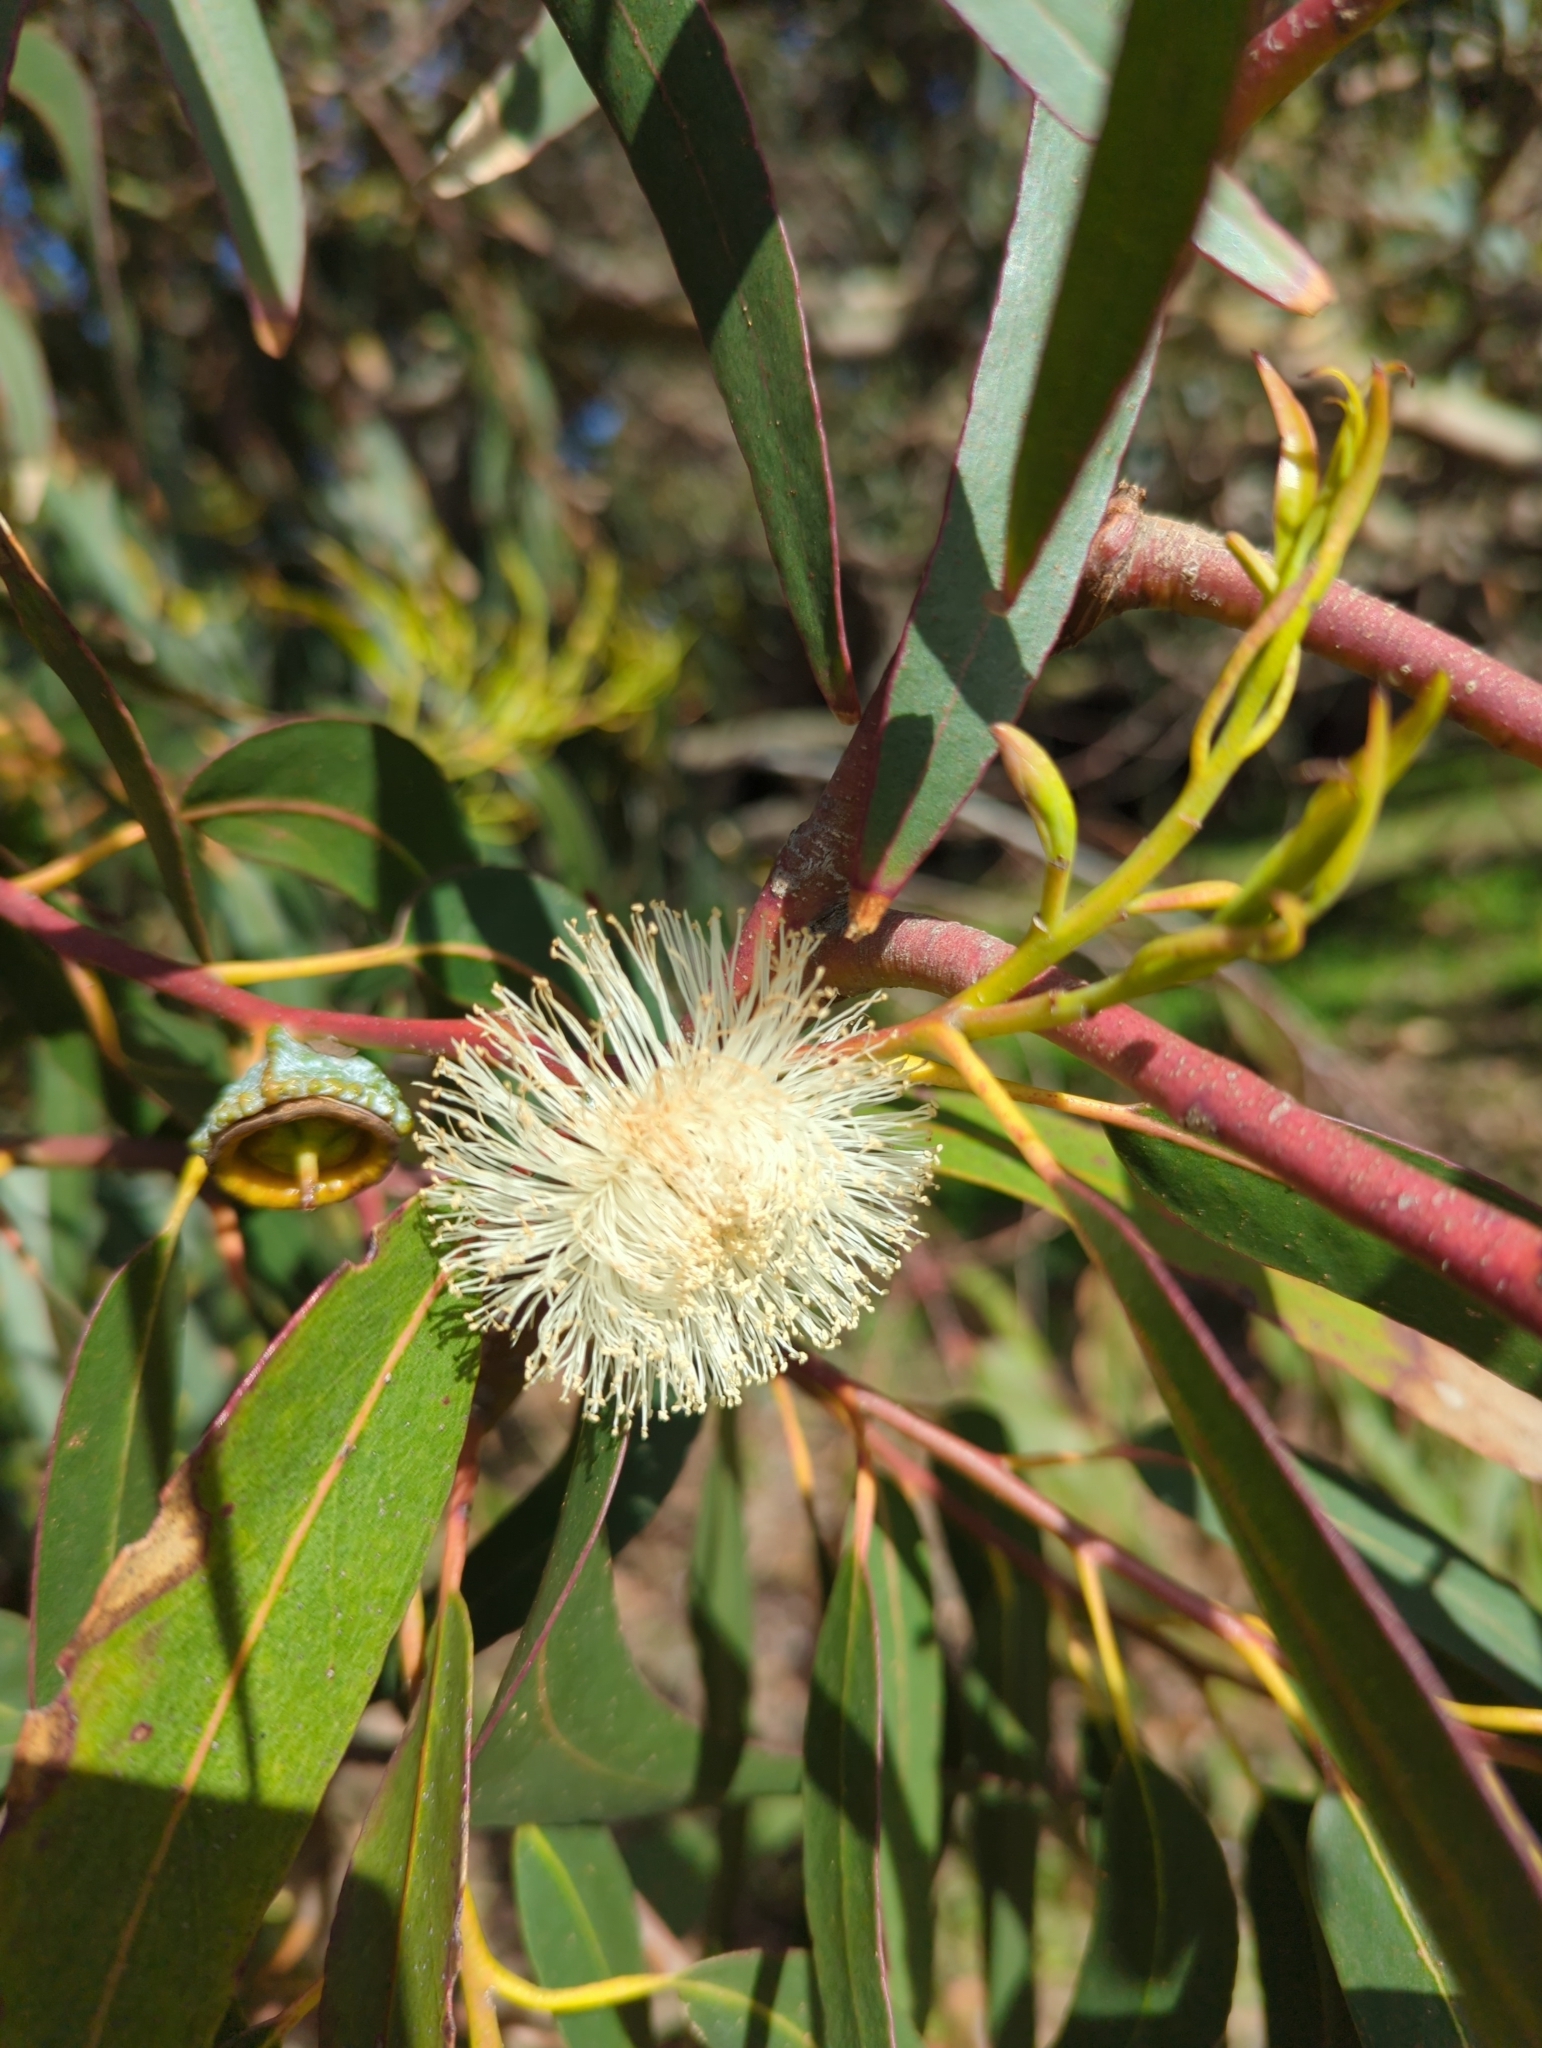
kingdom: Plantae
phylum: Tracheophyta
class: Magnoliopsida
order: Myrtales
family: Myrtaceae
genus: Eucalyptus
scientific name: Eucalyptus globulus
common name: Southern blue-gum
